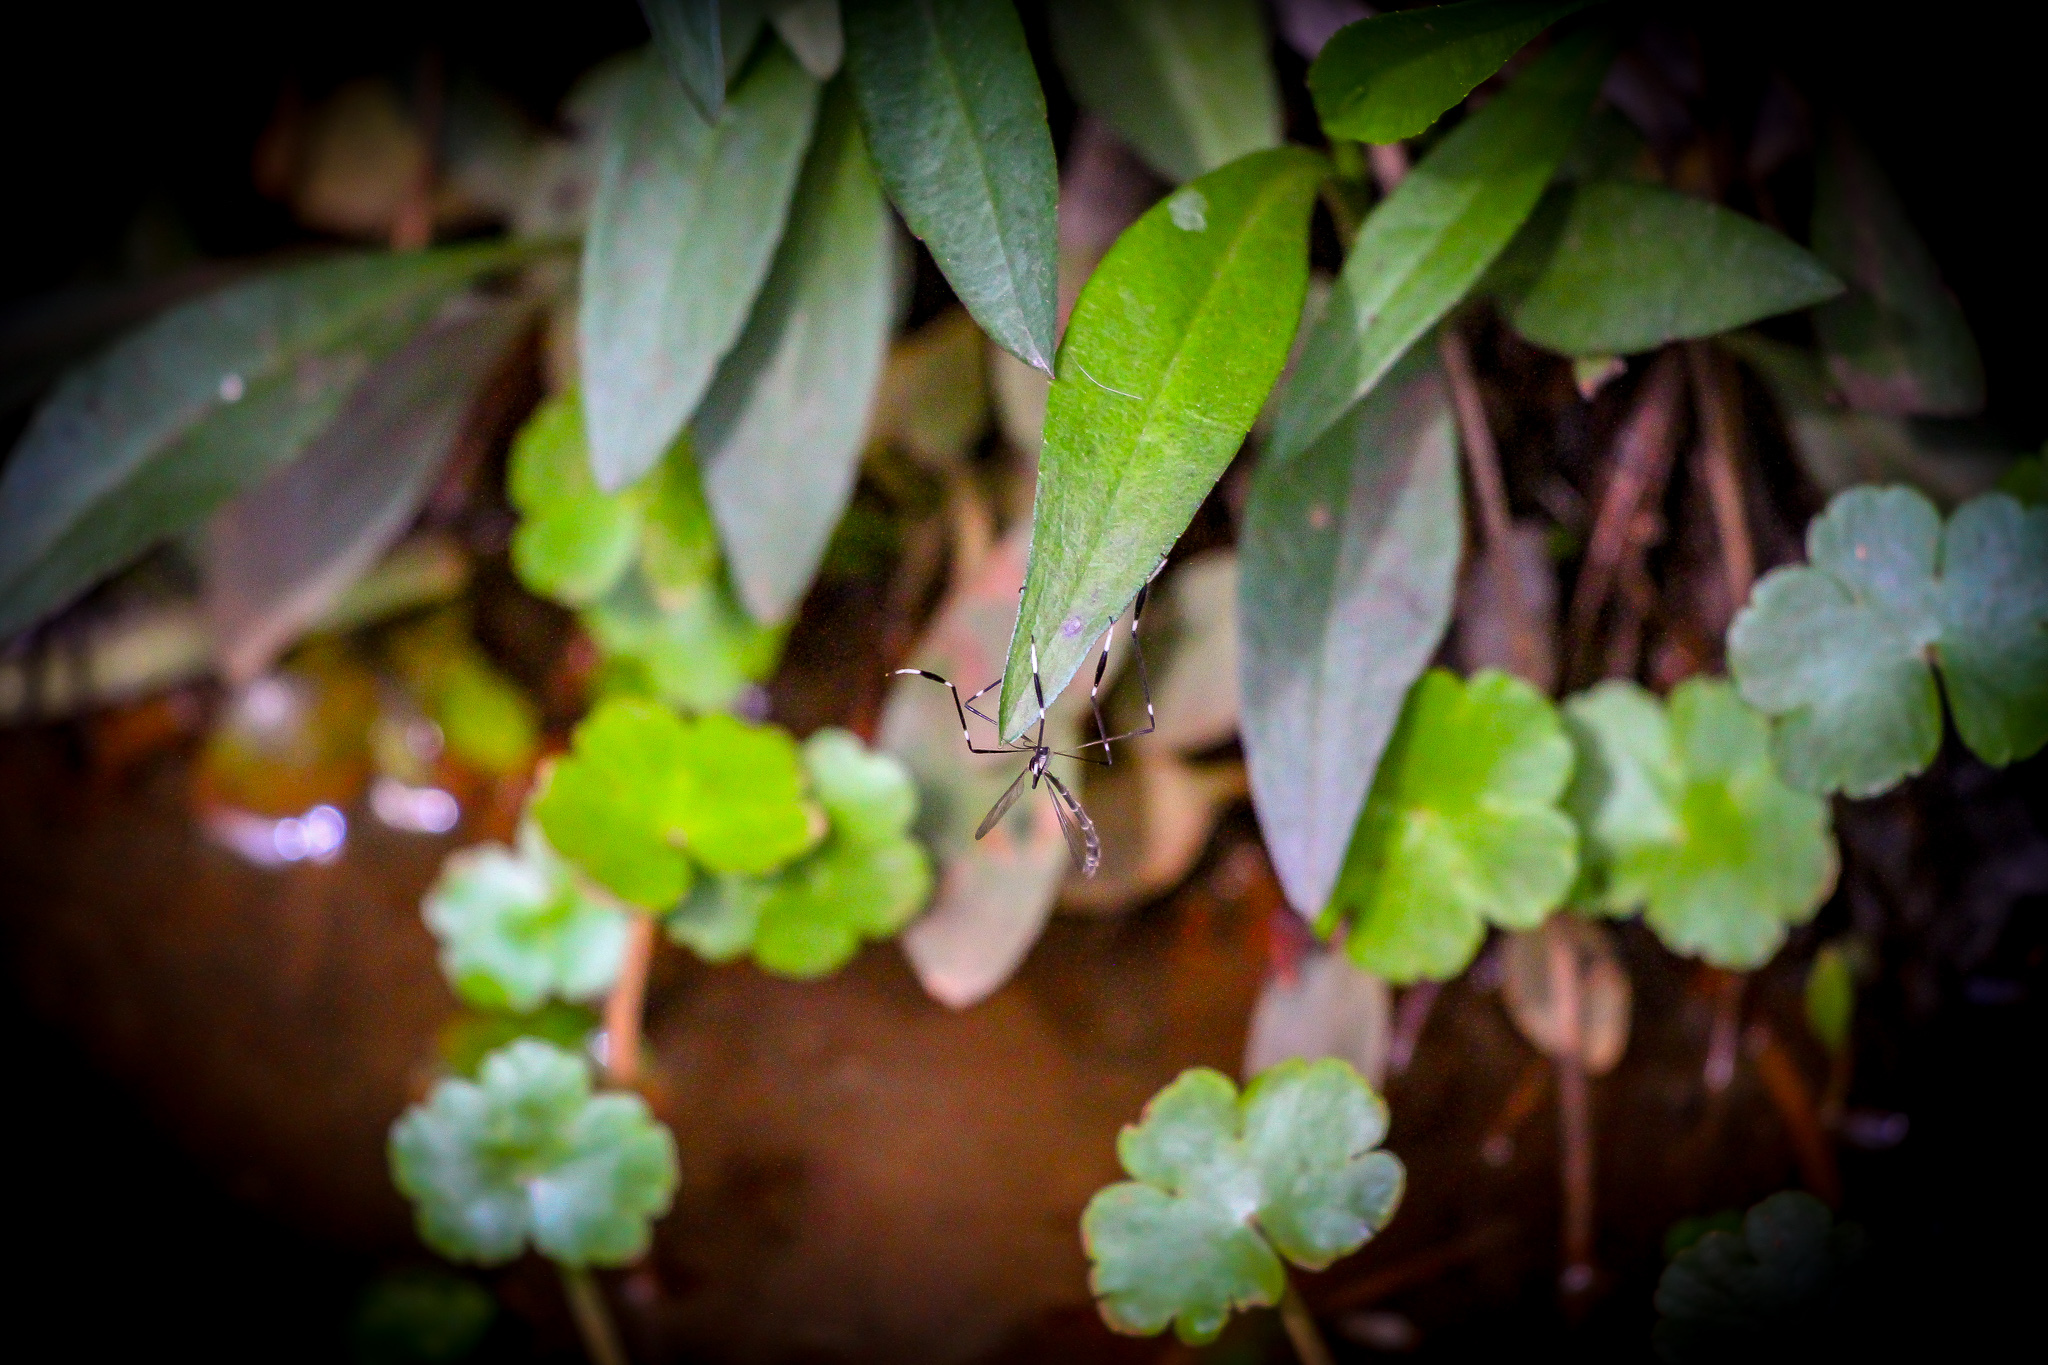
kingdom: Animalia
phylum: Arthropoda
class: Insecta
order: Diptera
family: Ptychopteridae
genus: Bittacomorpha
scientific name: Bittacomorpha clavipes
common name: Eastern phantom crane fly
